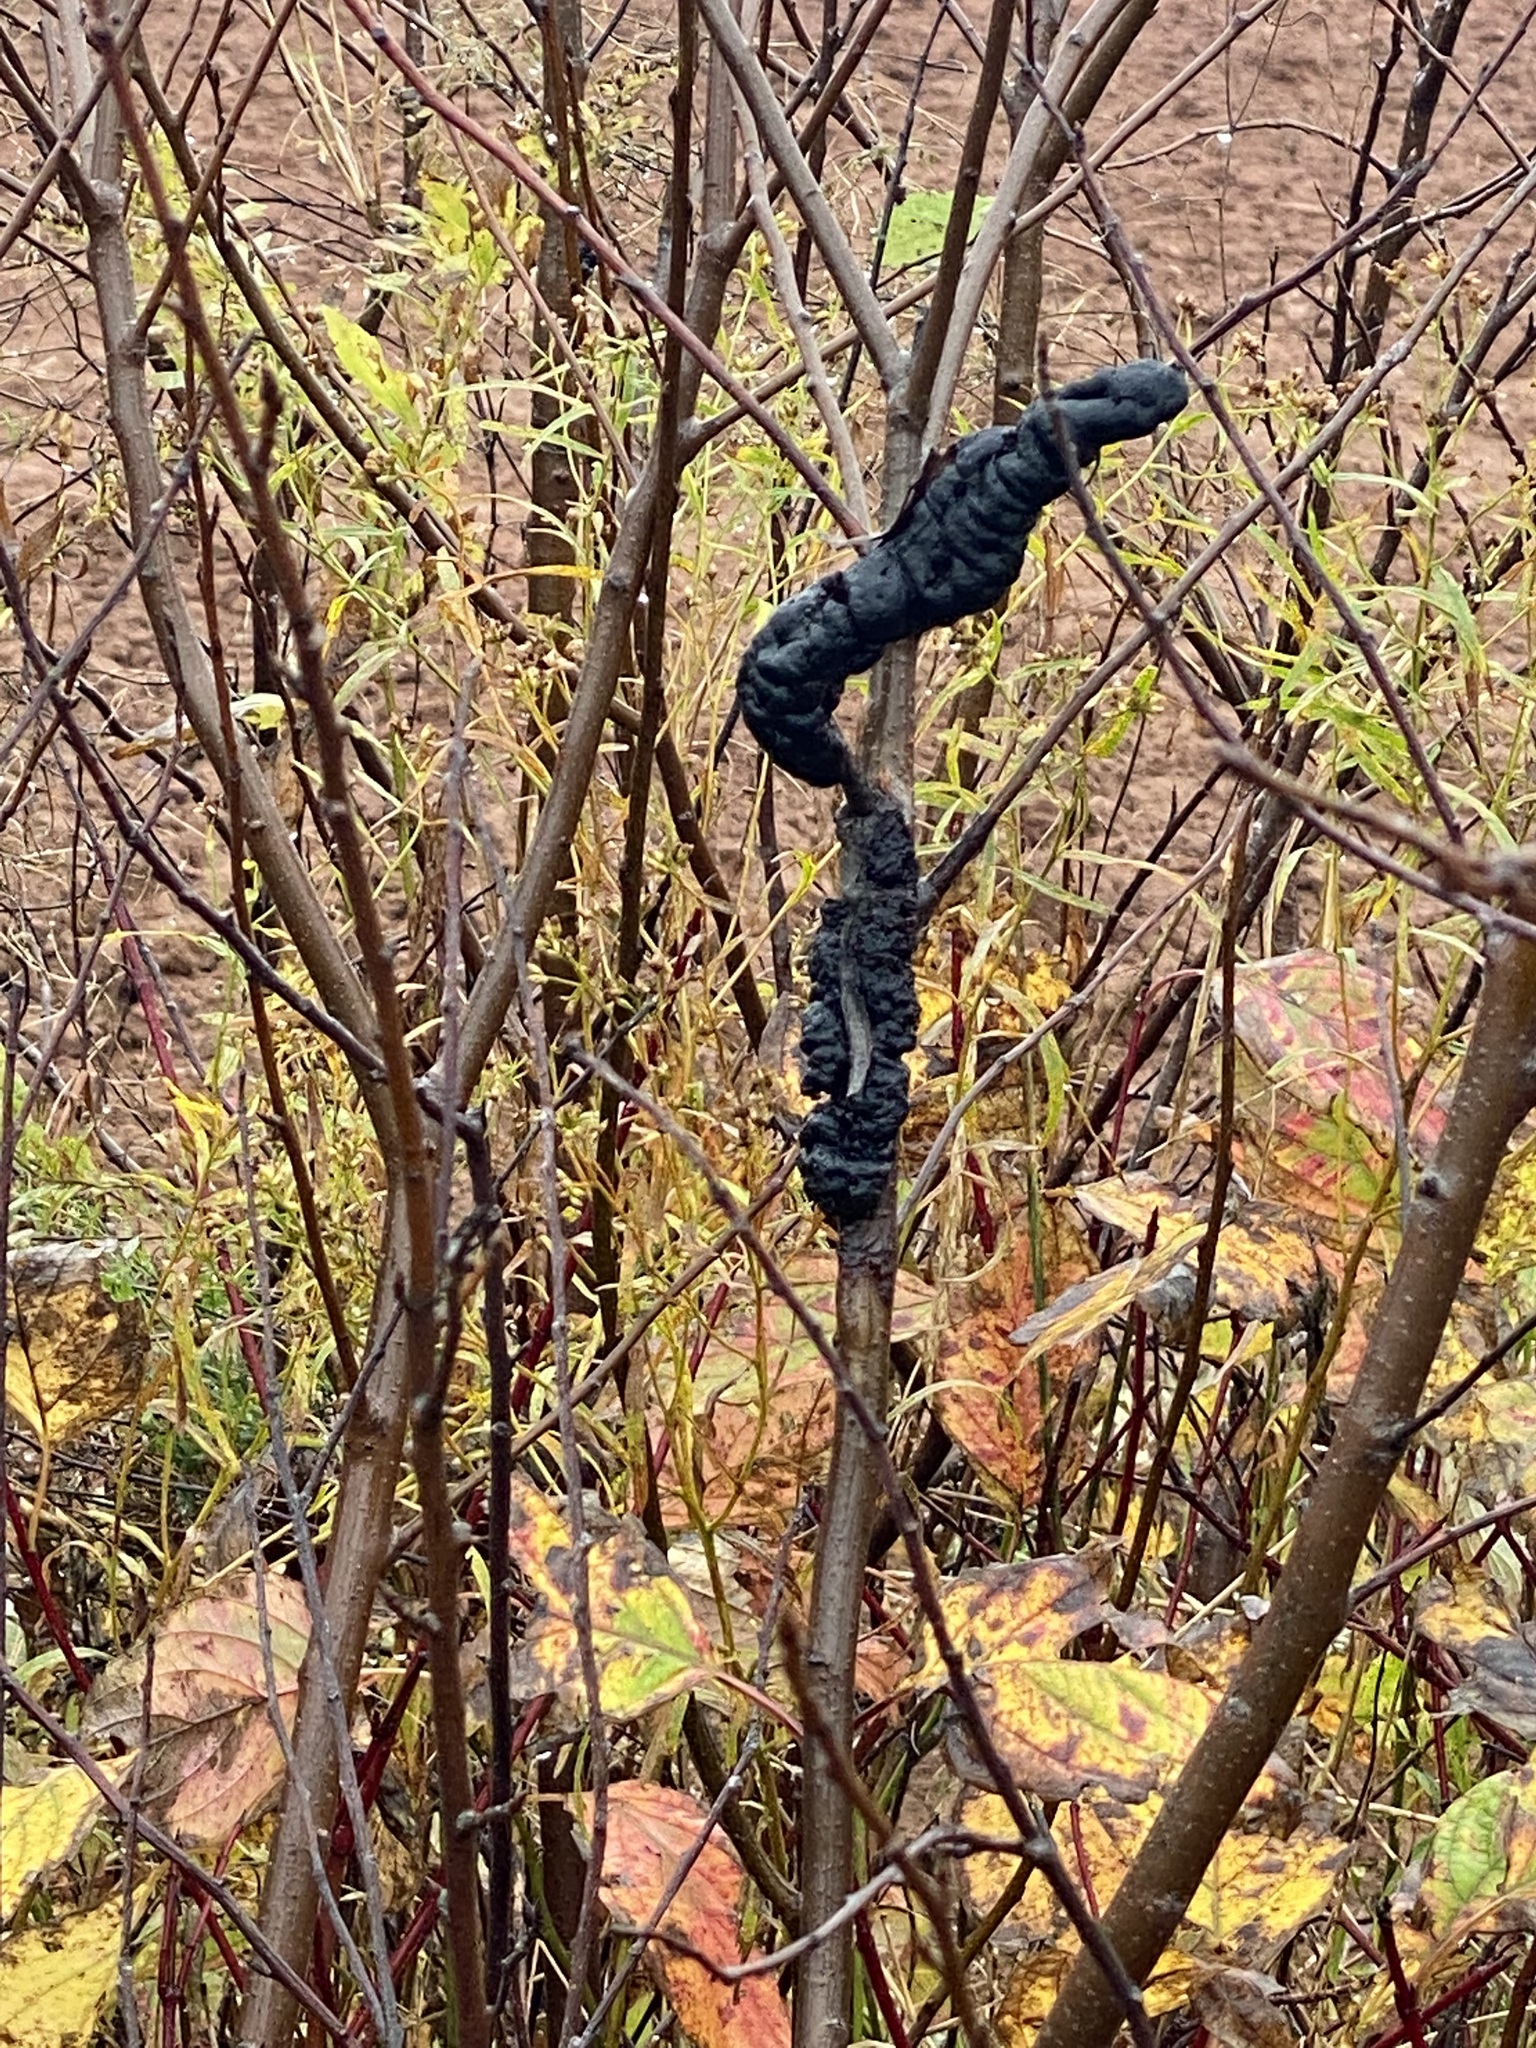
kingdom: Fungi
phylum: Ascomycota
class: Dothideomycetes
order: Venturiales
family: Venturiaceae
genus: Apiosporina
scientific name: Apiosporina morbosa
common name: Black knot
